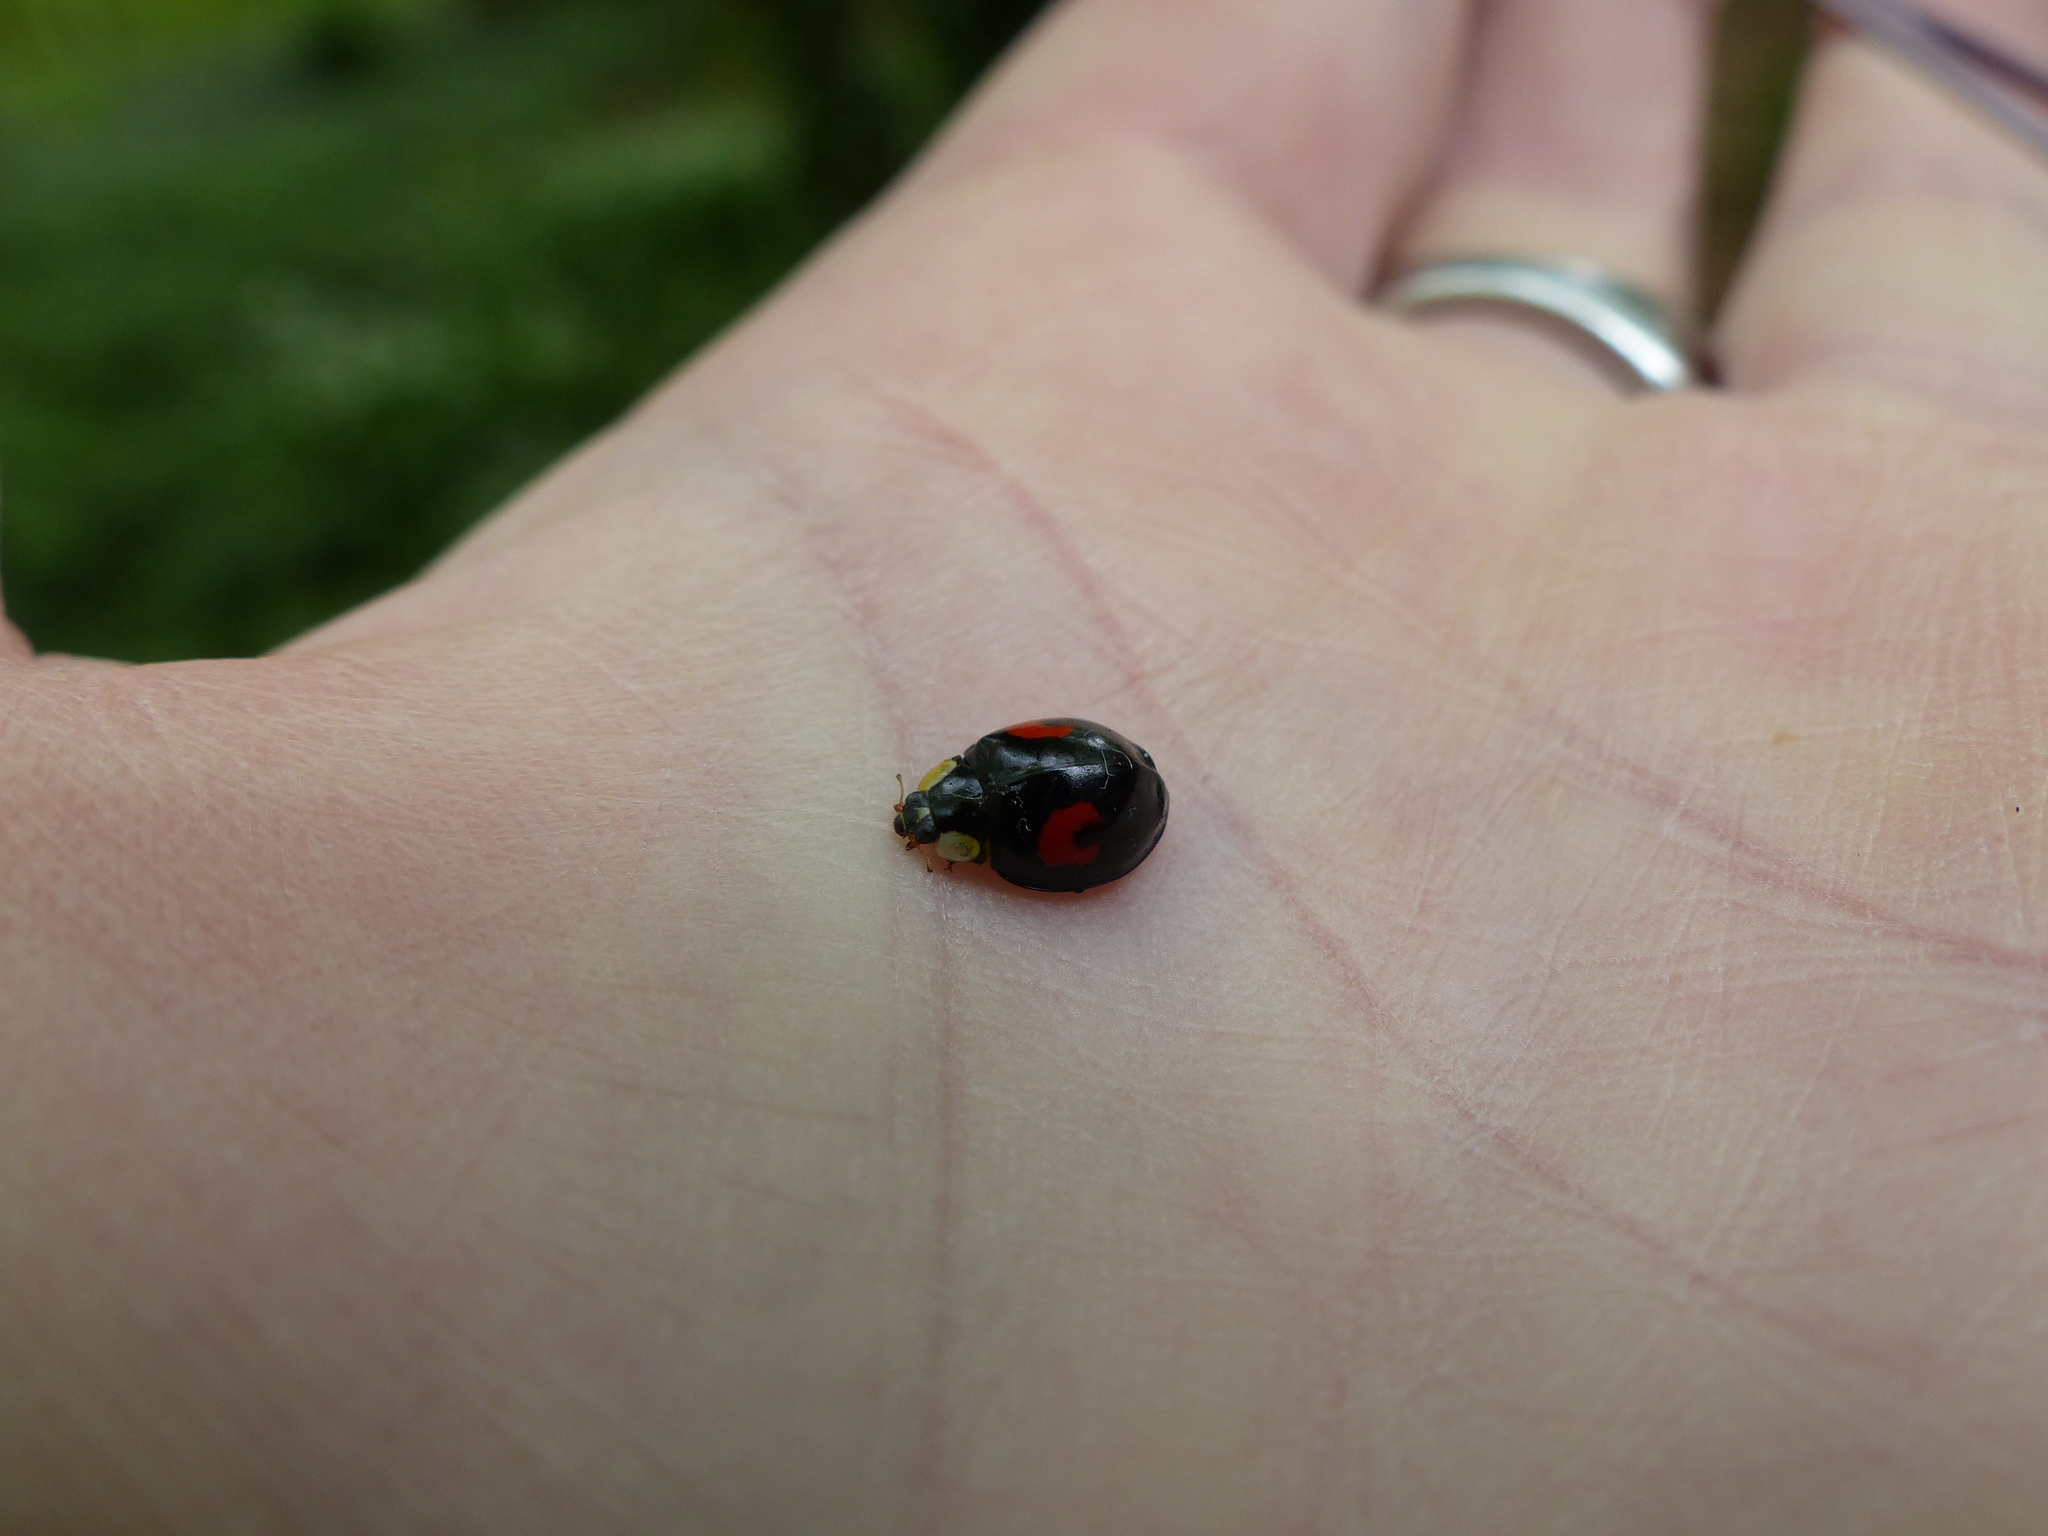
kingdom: Animalia
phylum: Arthropoda
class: Insecta
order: Coleoptera
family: Coccinellidae
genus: Harmonia
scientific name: Harmonia axyridis
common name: Harlequin ladybird
